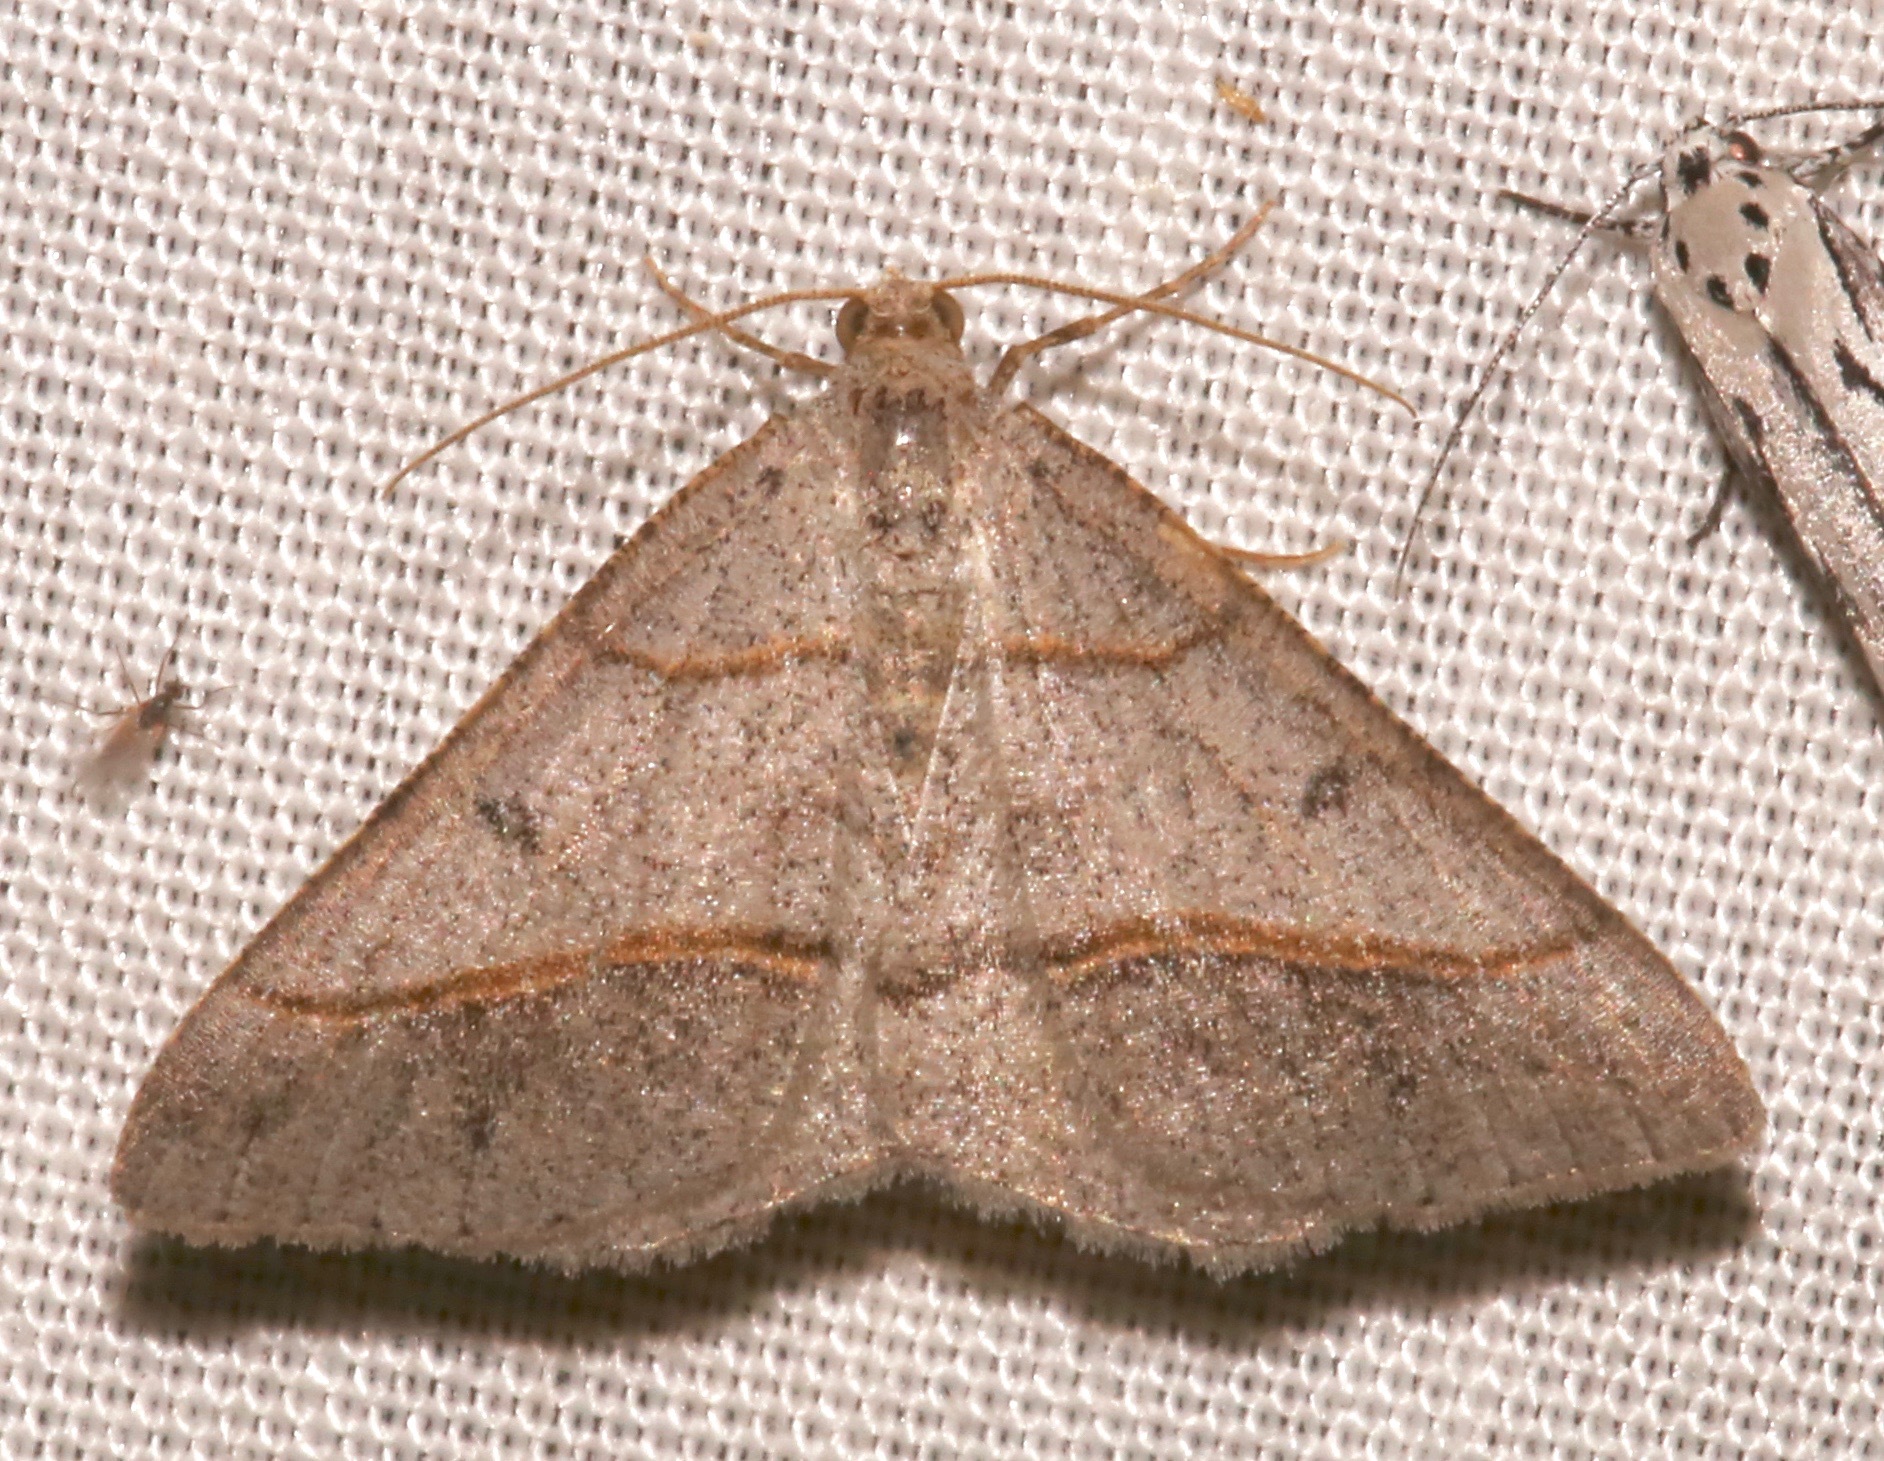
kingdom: Animalia
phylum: Arthropoda
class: Insecta
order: Lepidoptera
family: Geometridae
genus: Digrammia
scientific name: Digrammia neptaria
